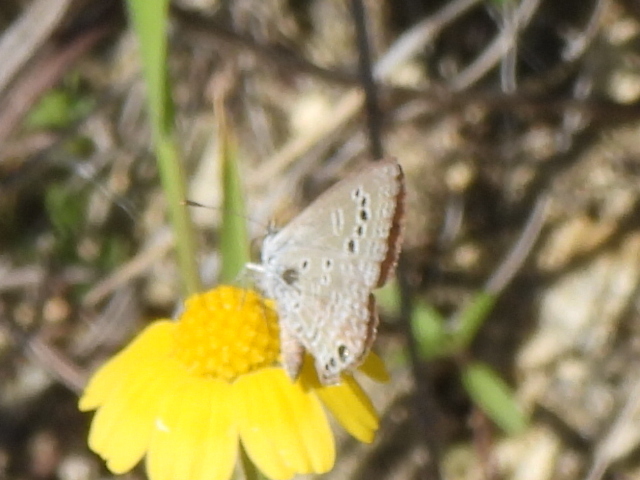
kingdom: Animalia
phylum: Arthropoda
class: Insecta
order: Lepidoptera
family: Lycaenidae
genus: Echinargus
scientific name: Echinargus isola
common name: Reakirt's blue
